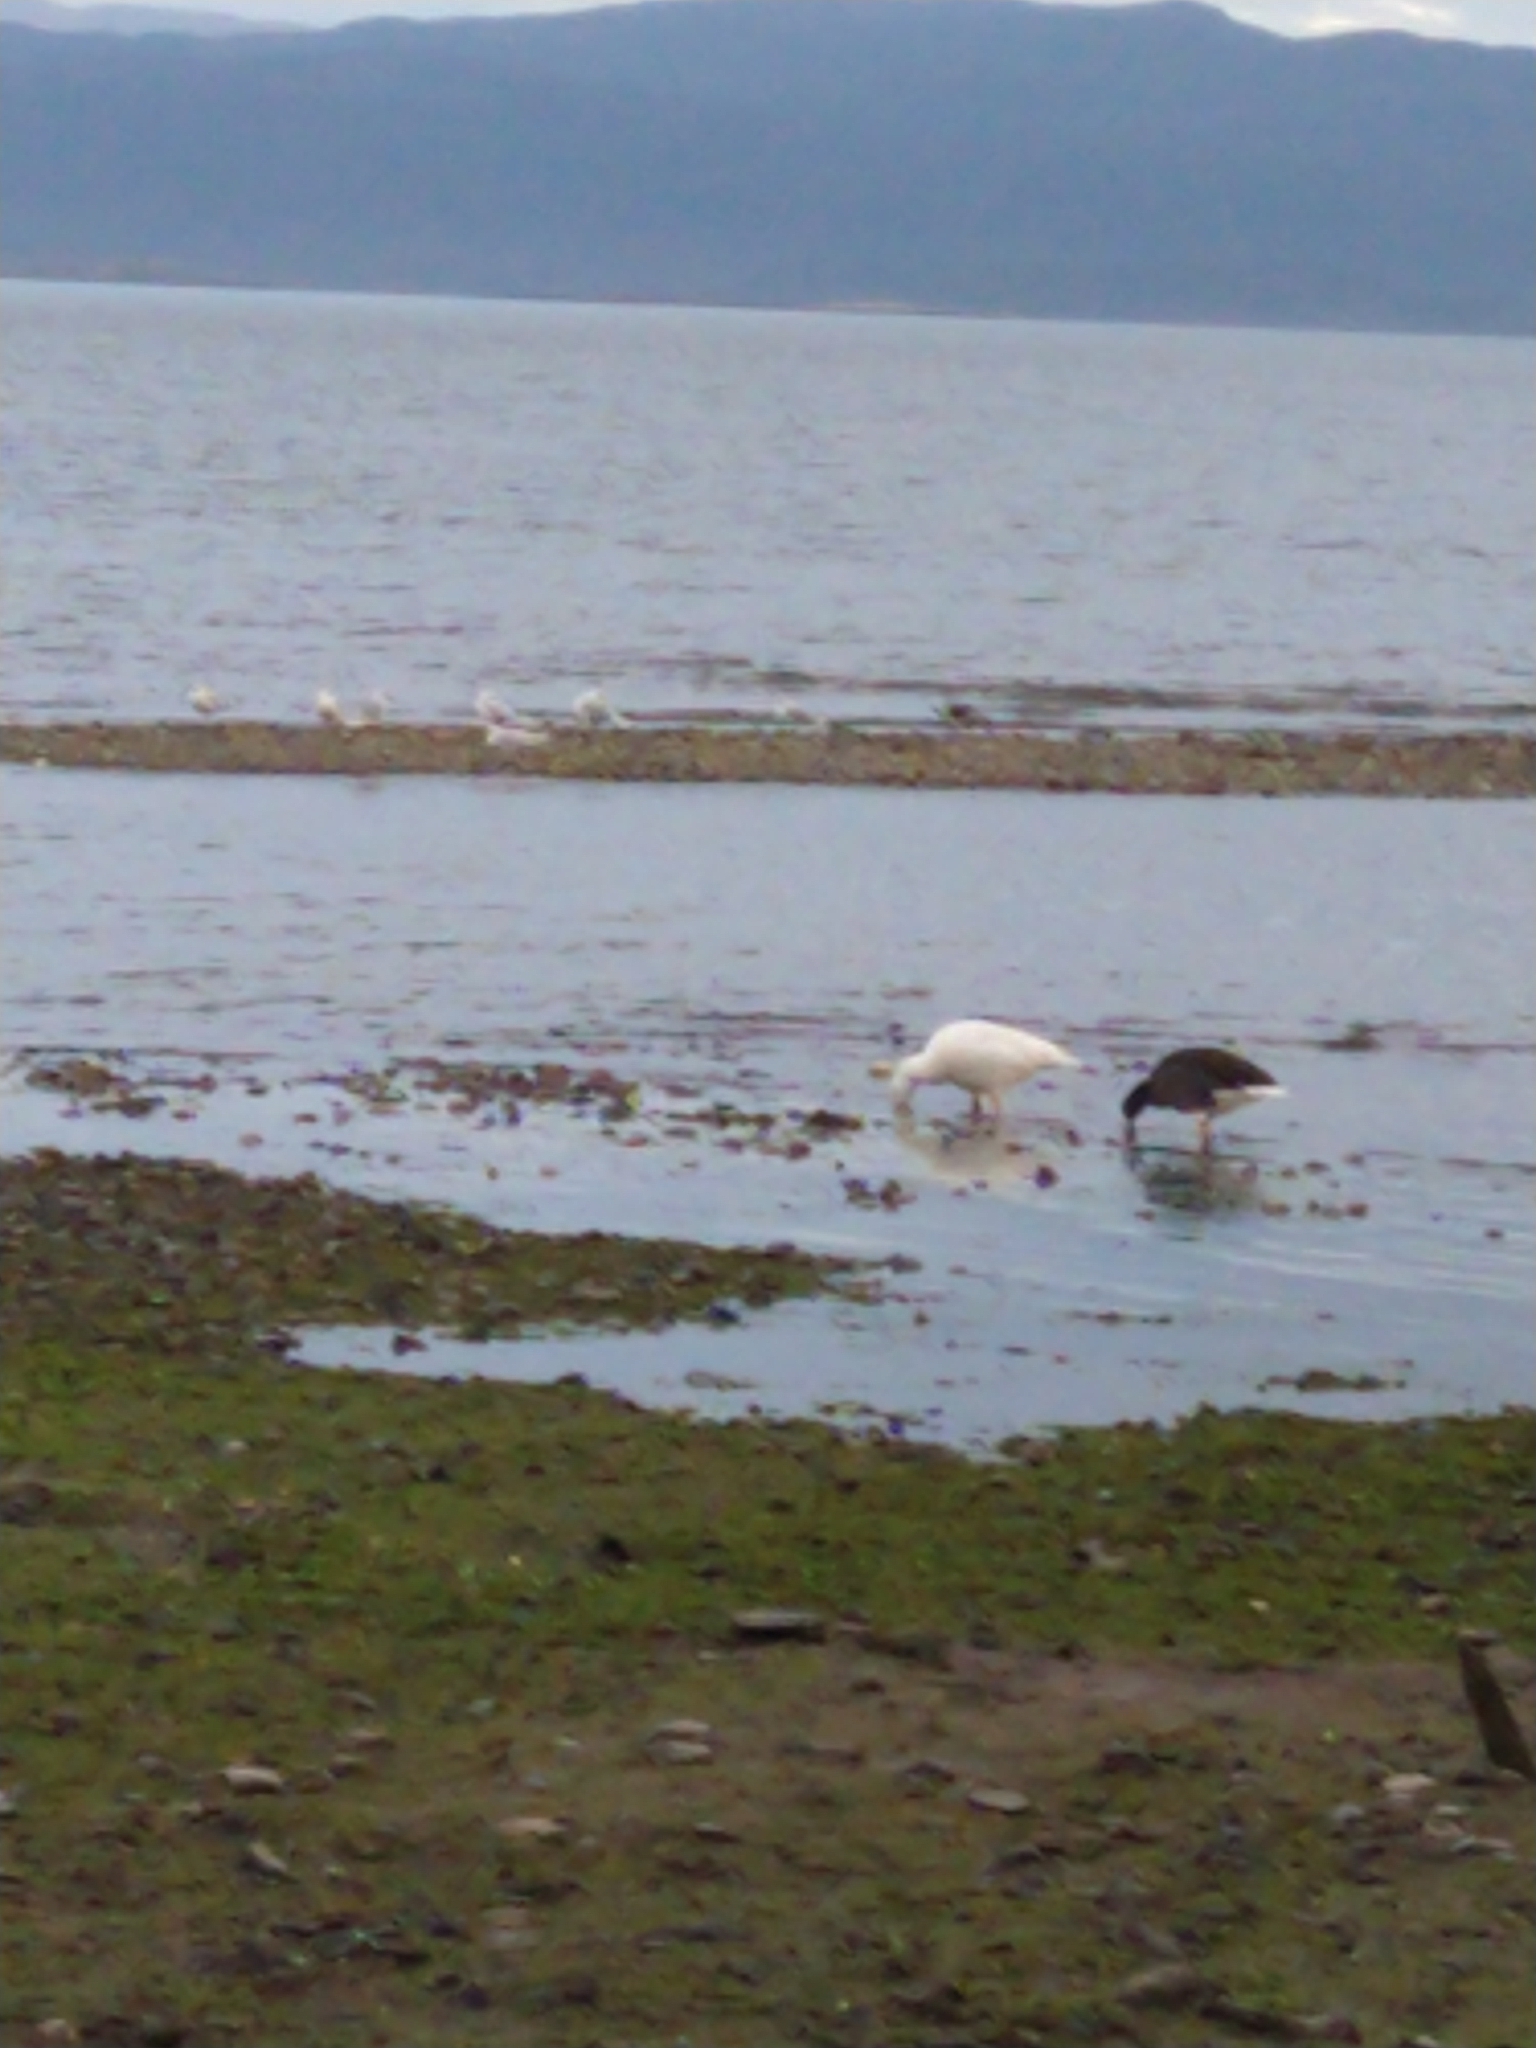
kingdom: Animalia
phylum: Chordata
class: Aves
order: Anseriformes
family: Anatidae
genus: Chloephaga
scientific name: Chloephaga hybrida
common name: Kelp goose
